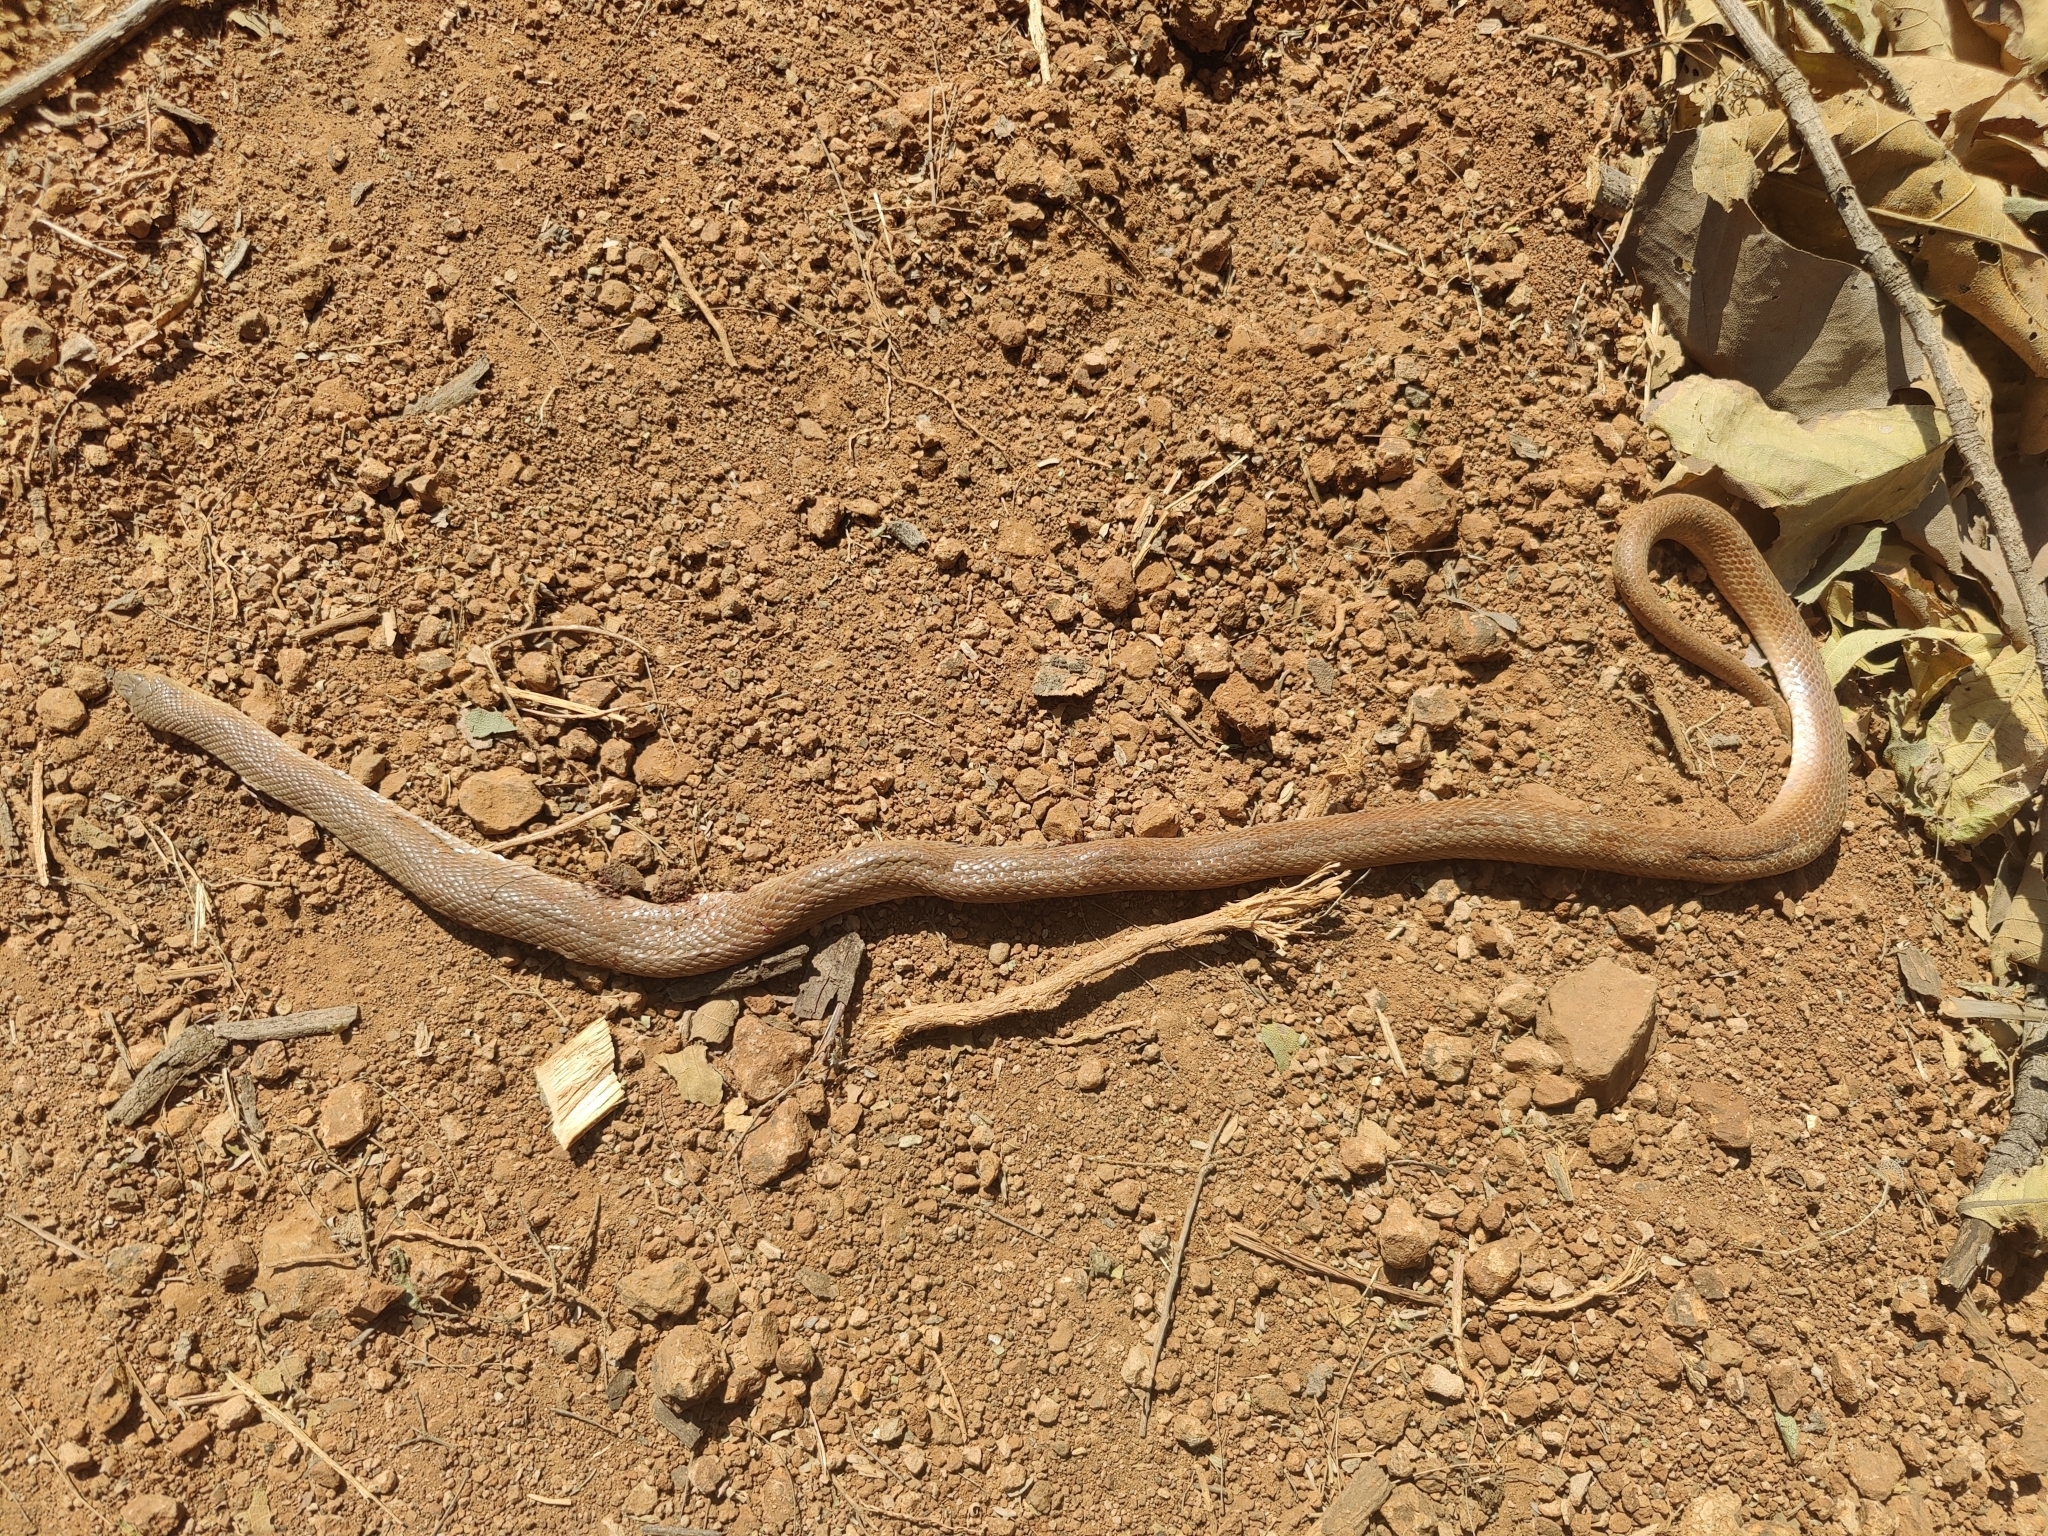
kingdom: Animalia
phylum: Chordata
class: Squamata
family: Colubridae
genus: Platyceps
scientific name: Platyceps plinii
